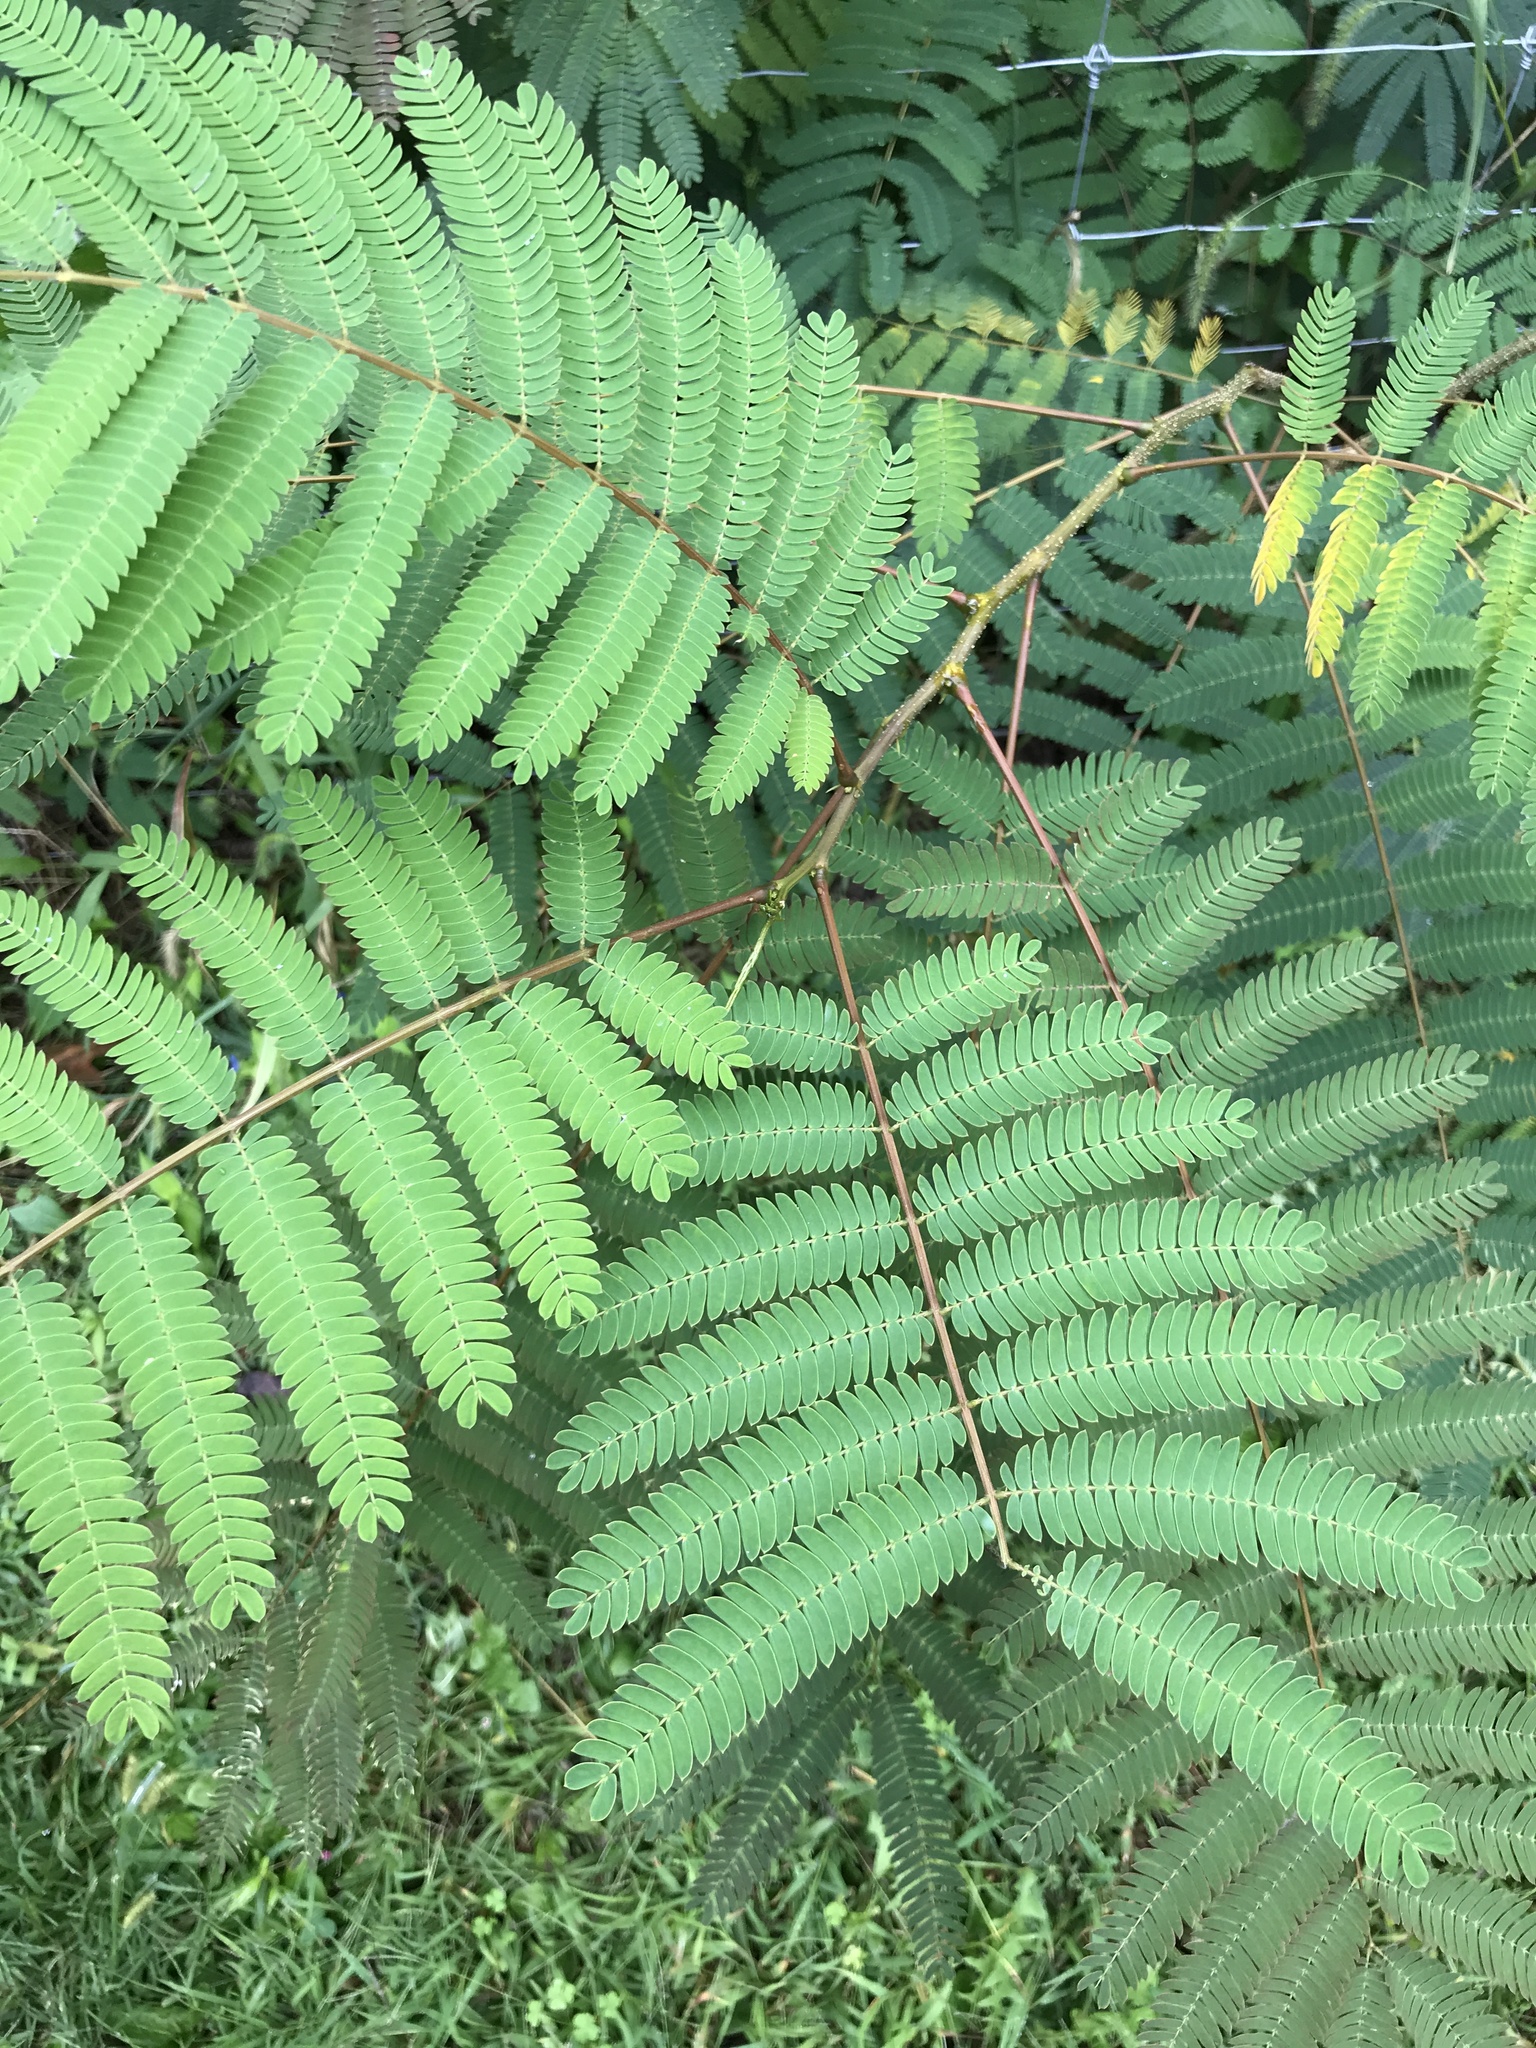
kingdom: Plantae
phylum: Tracheophyta
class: Magnoliopsida
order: Fabales
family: Fabaceae
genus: Albizia
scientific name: Albizia julibrissin
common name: Silktree
